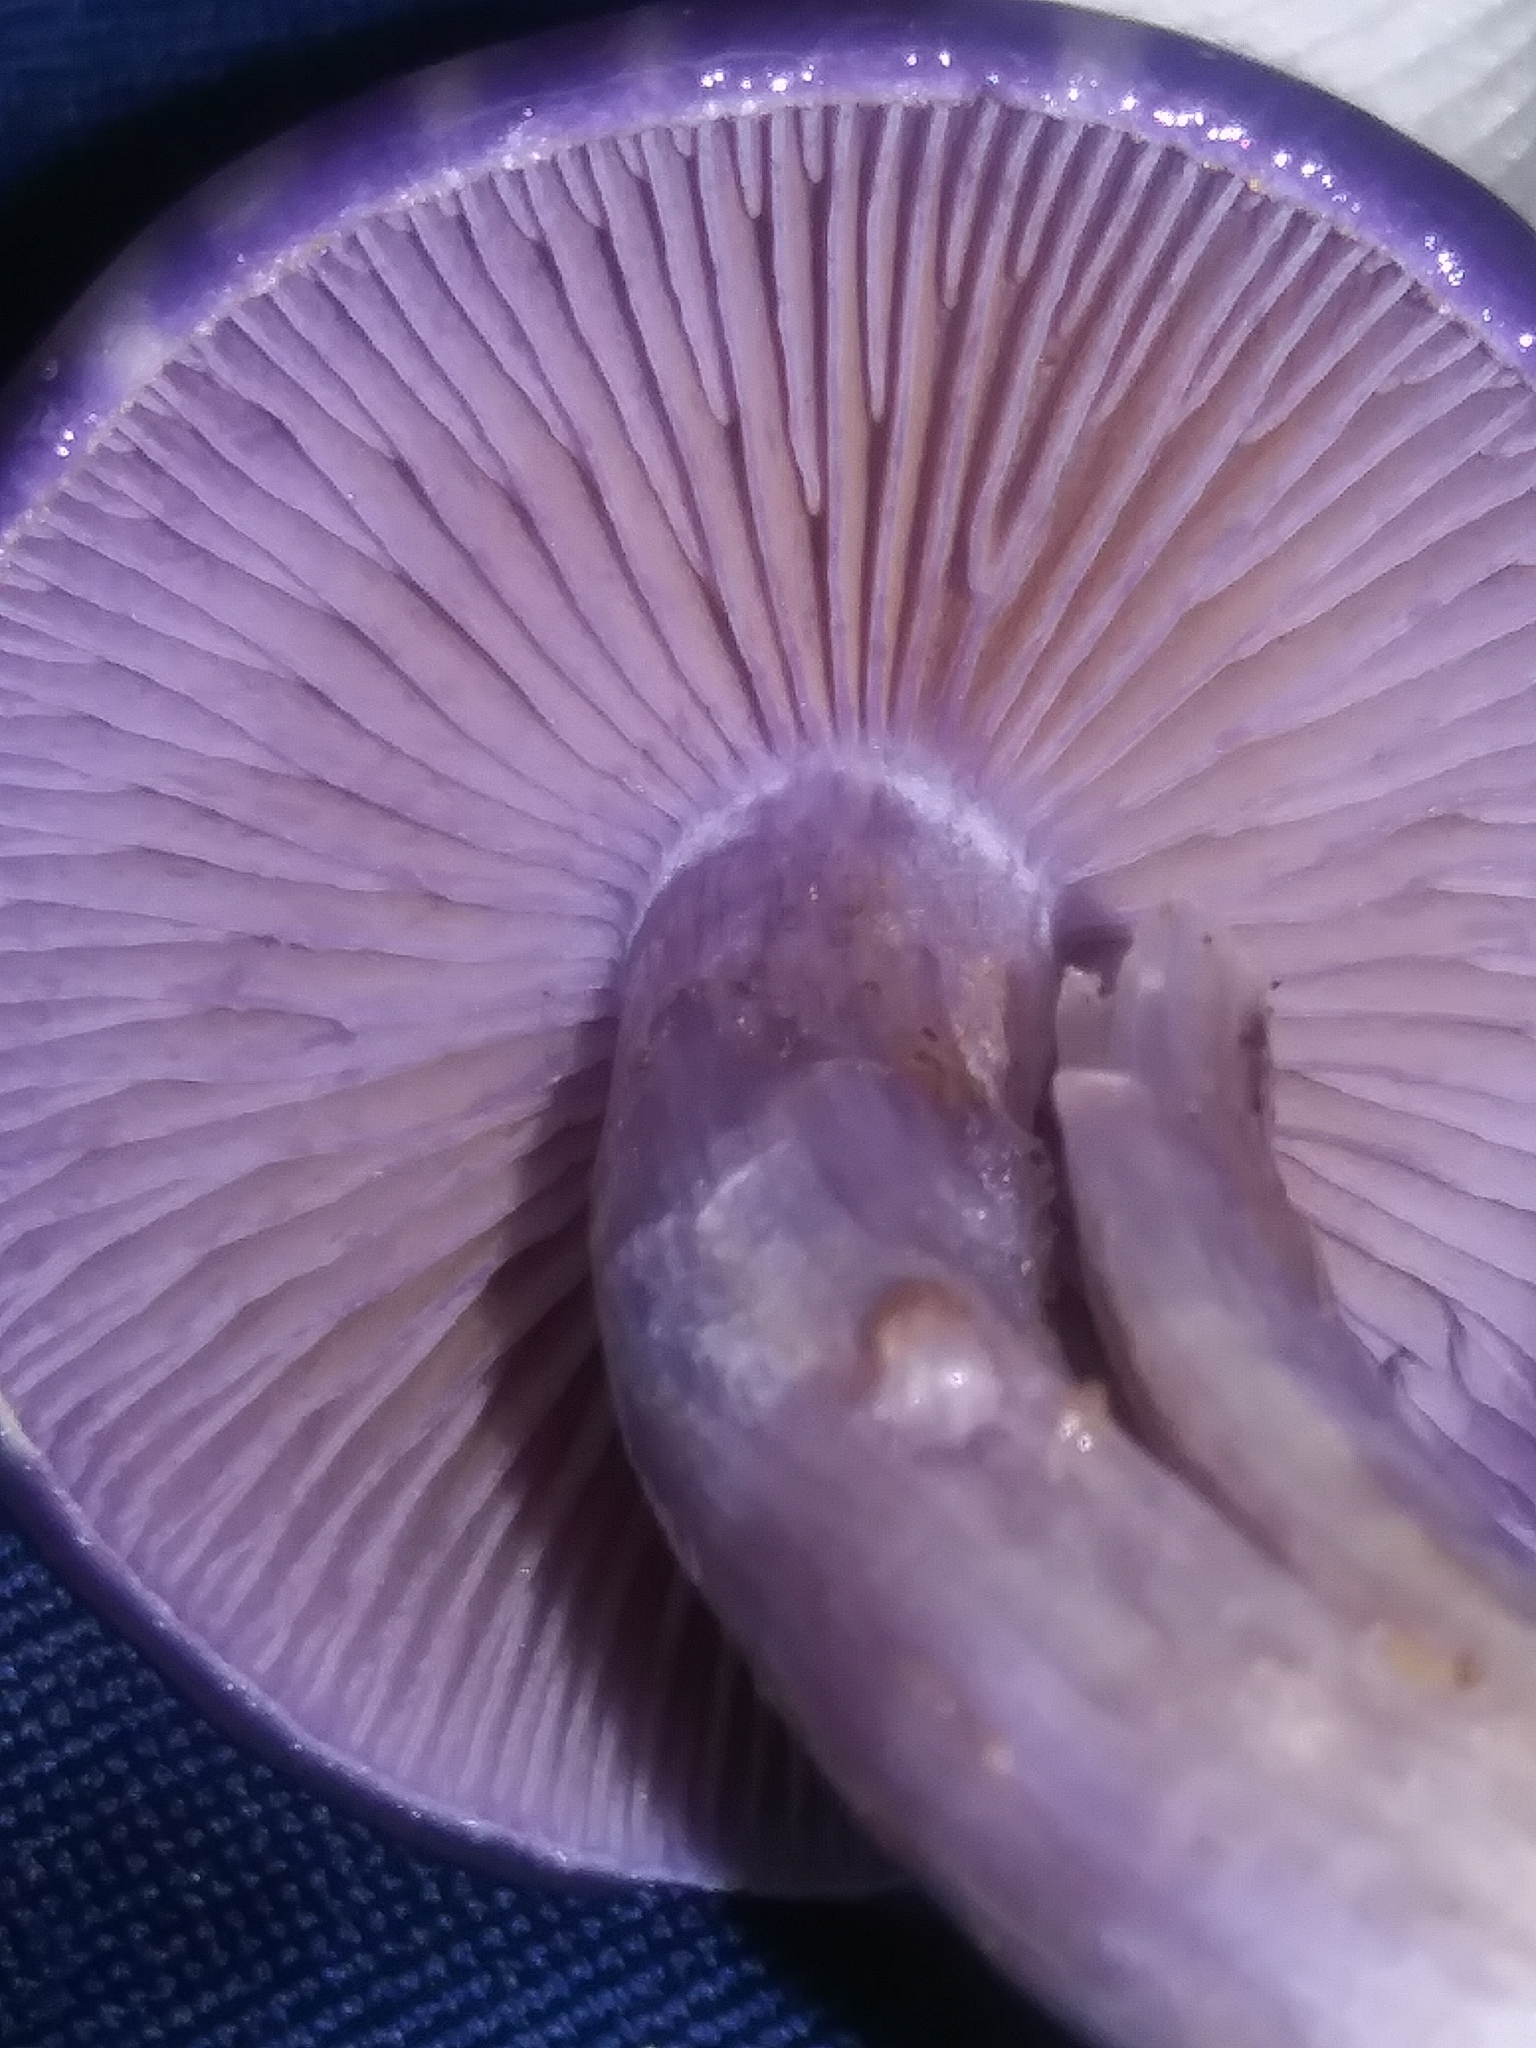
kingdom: Fungi
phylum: Basidiomycota
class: Agaricomycetes
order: Agaricales
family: Cortinariaceae
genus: Cortinarius
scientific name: Cortinarius iodes
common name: Viscid violet cort
